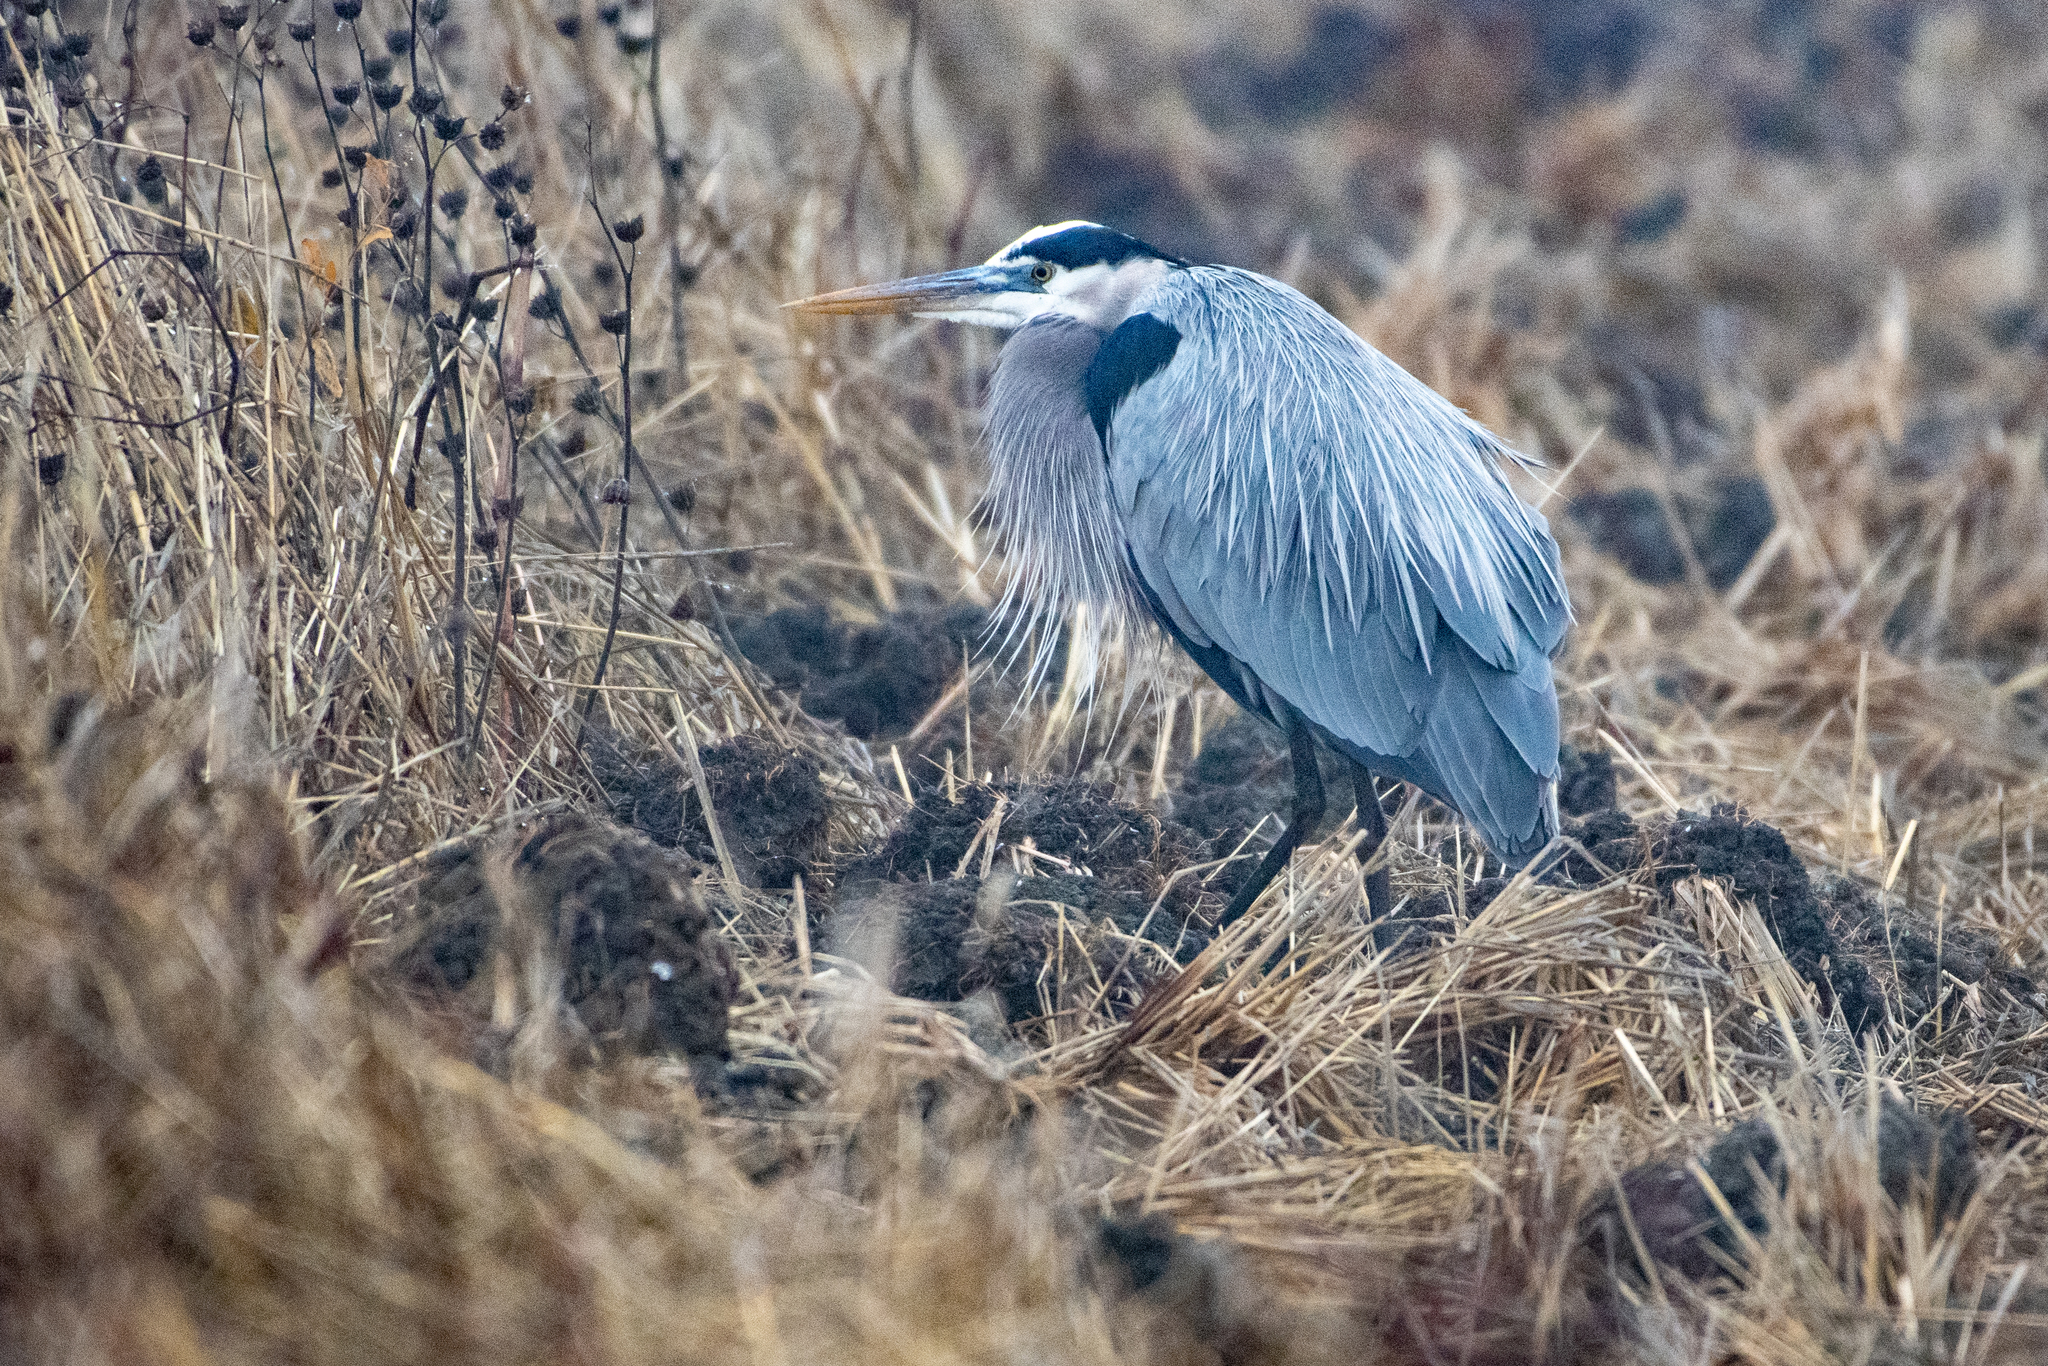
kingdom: Animalia
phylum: Chordata
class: Aves
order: Pelecaniformes
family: Ardeidae
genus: Ardea
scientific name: Ardea herodias
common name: Great blue heron
